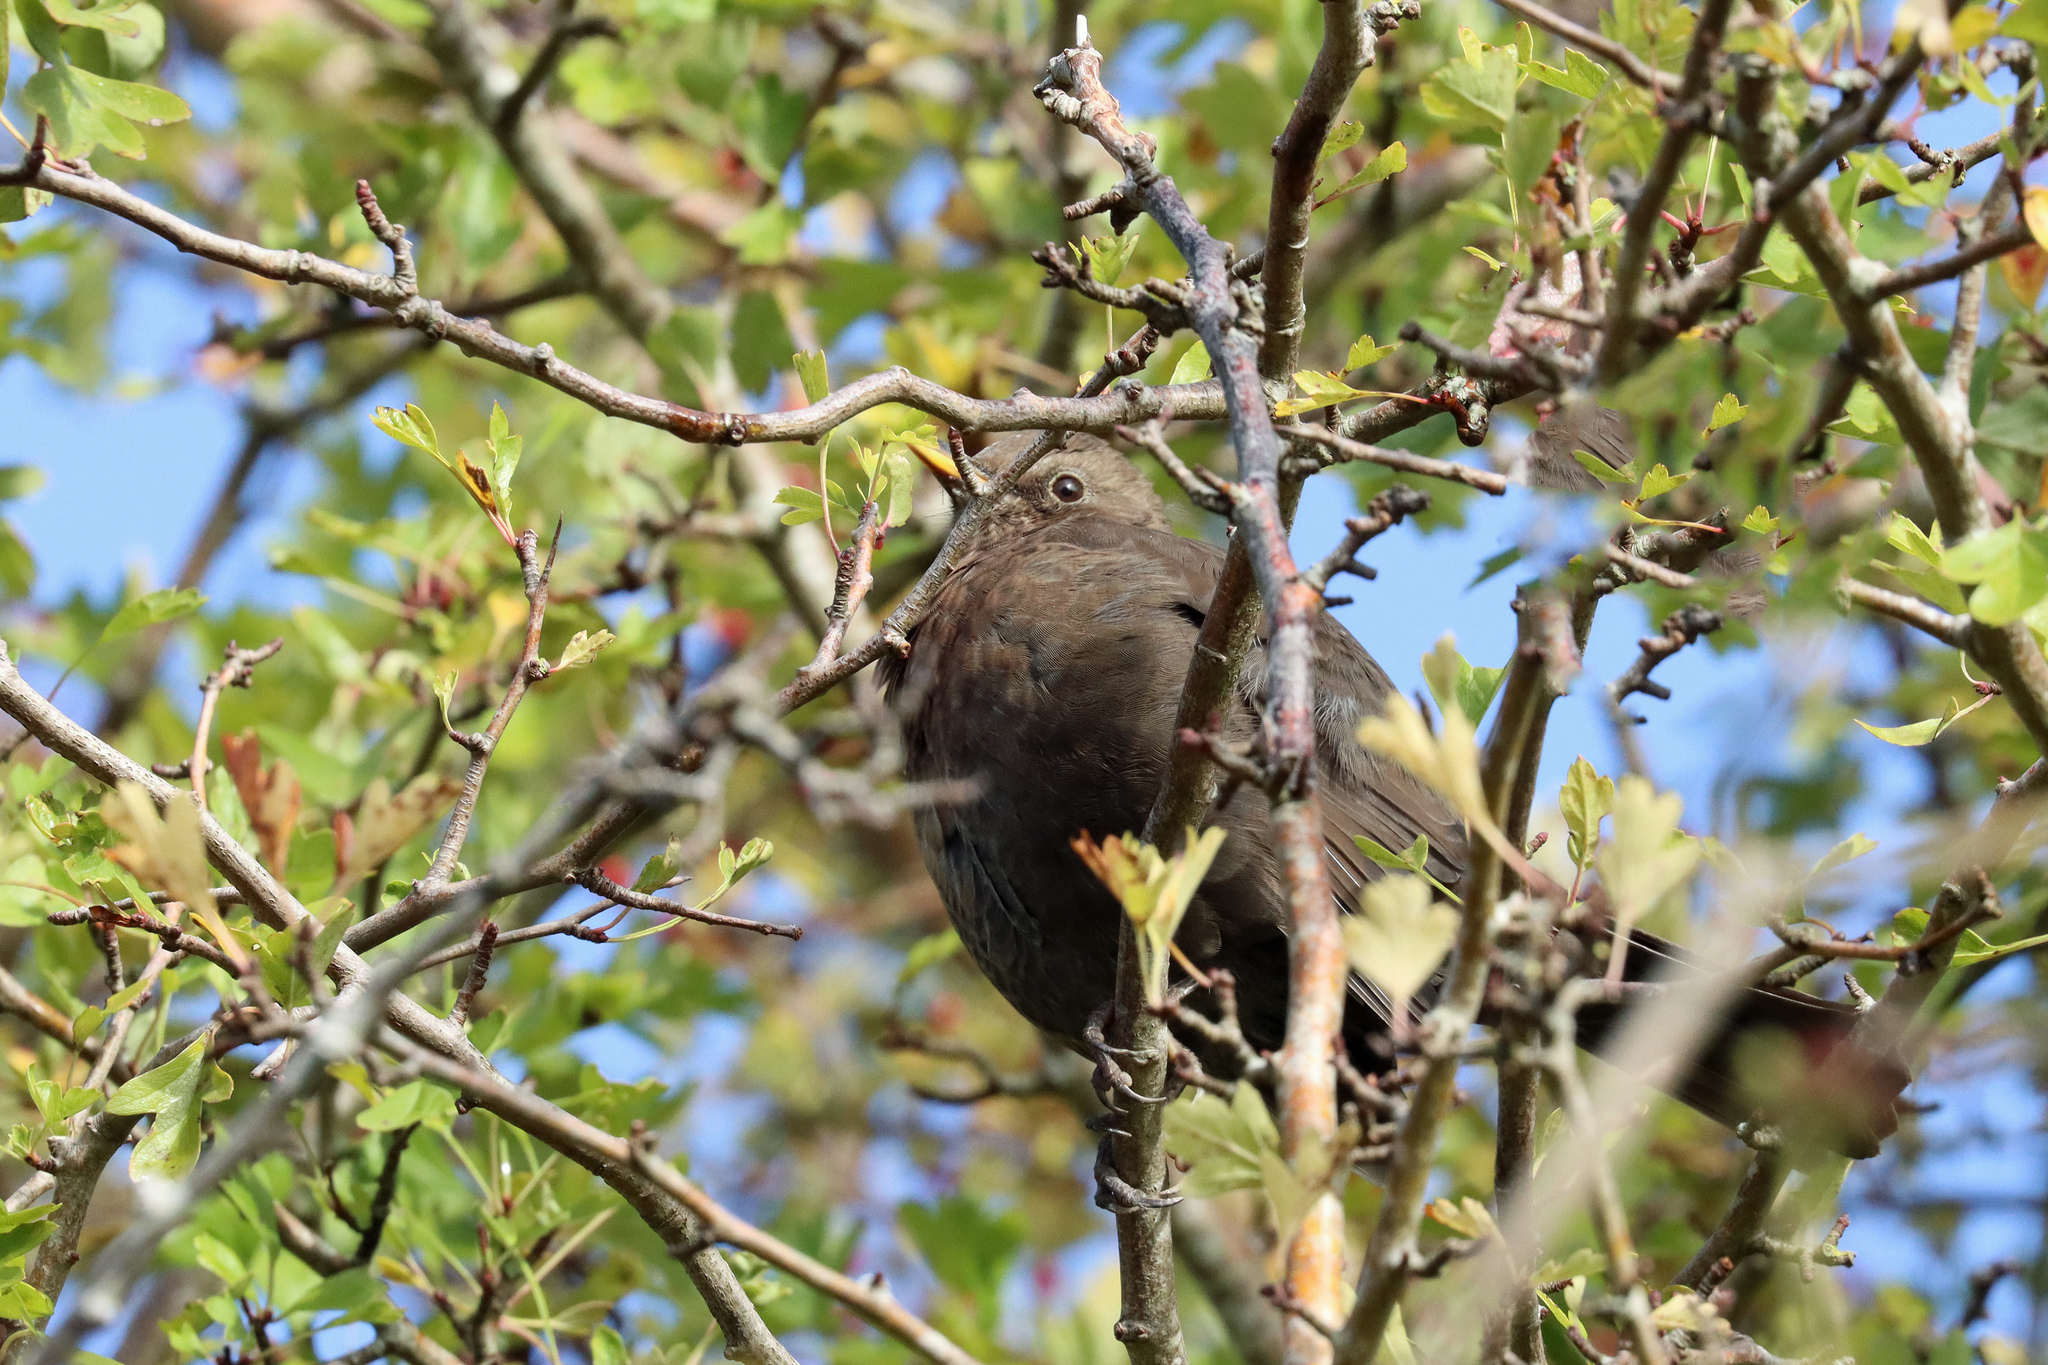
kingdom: Animalia
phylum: Chordata
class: Aves
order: Passeriformes
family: Turdidae
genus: Turdus
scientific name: Turdus merula
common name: Common blackbird
